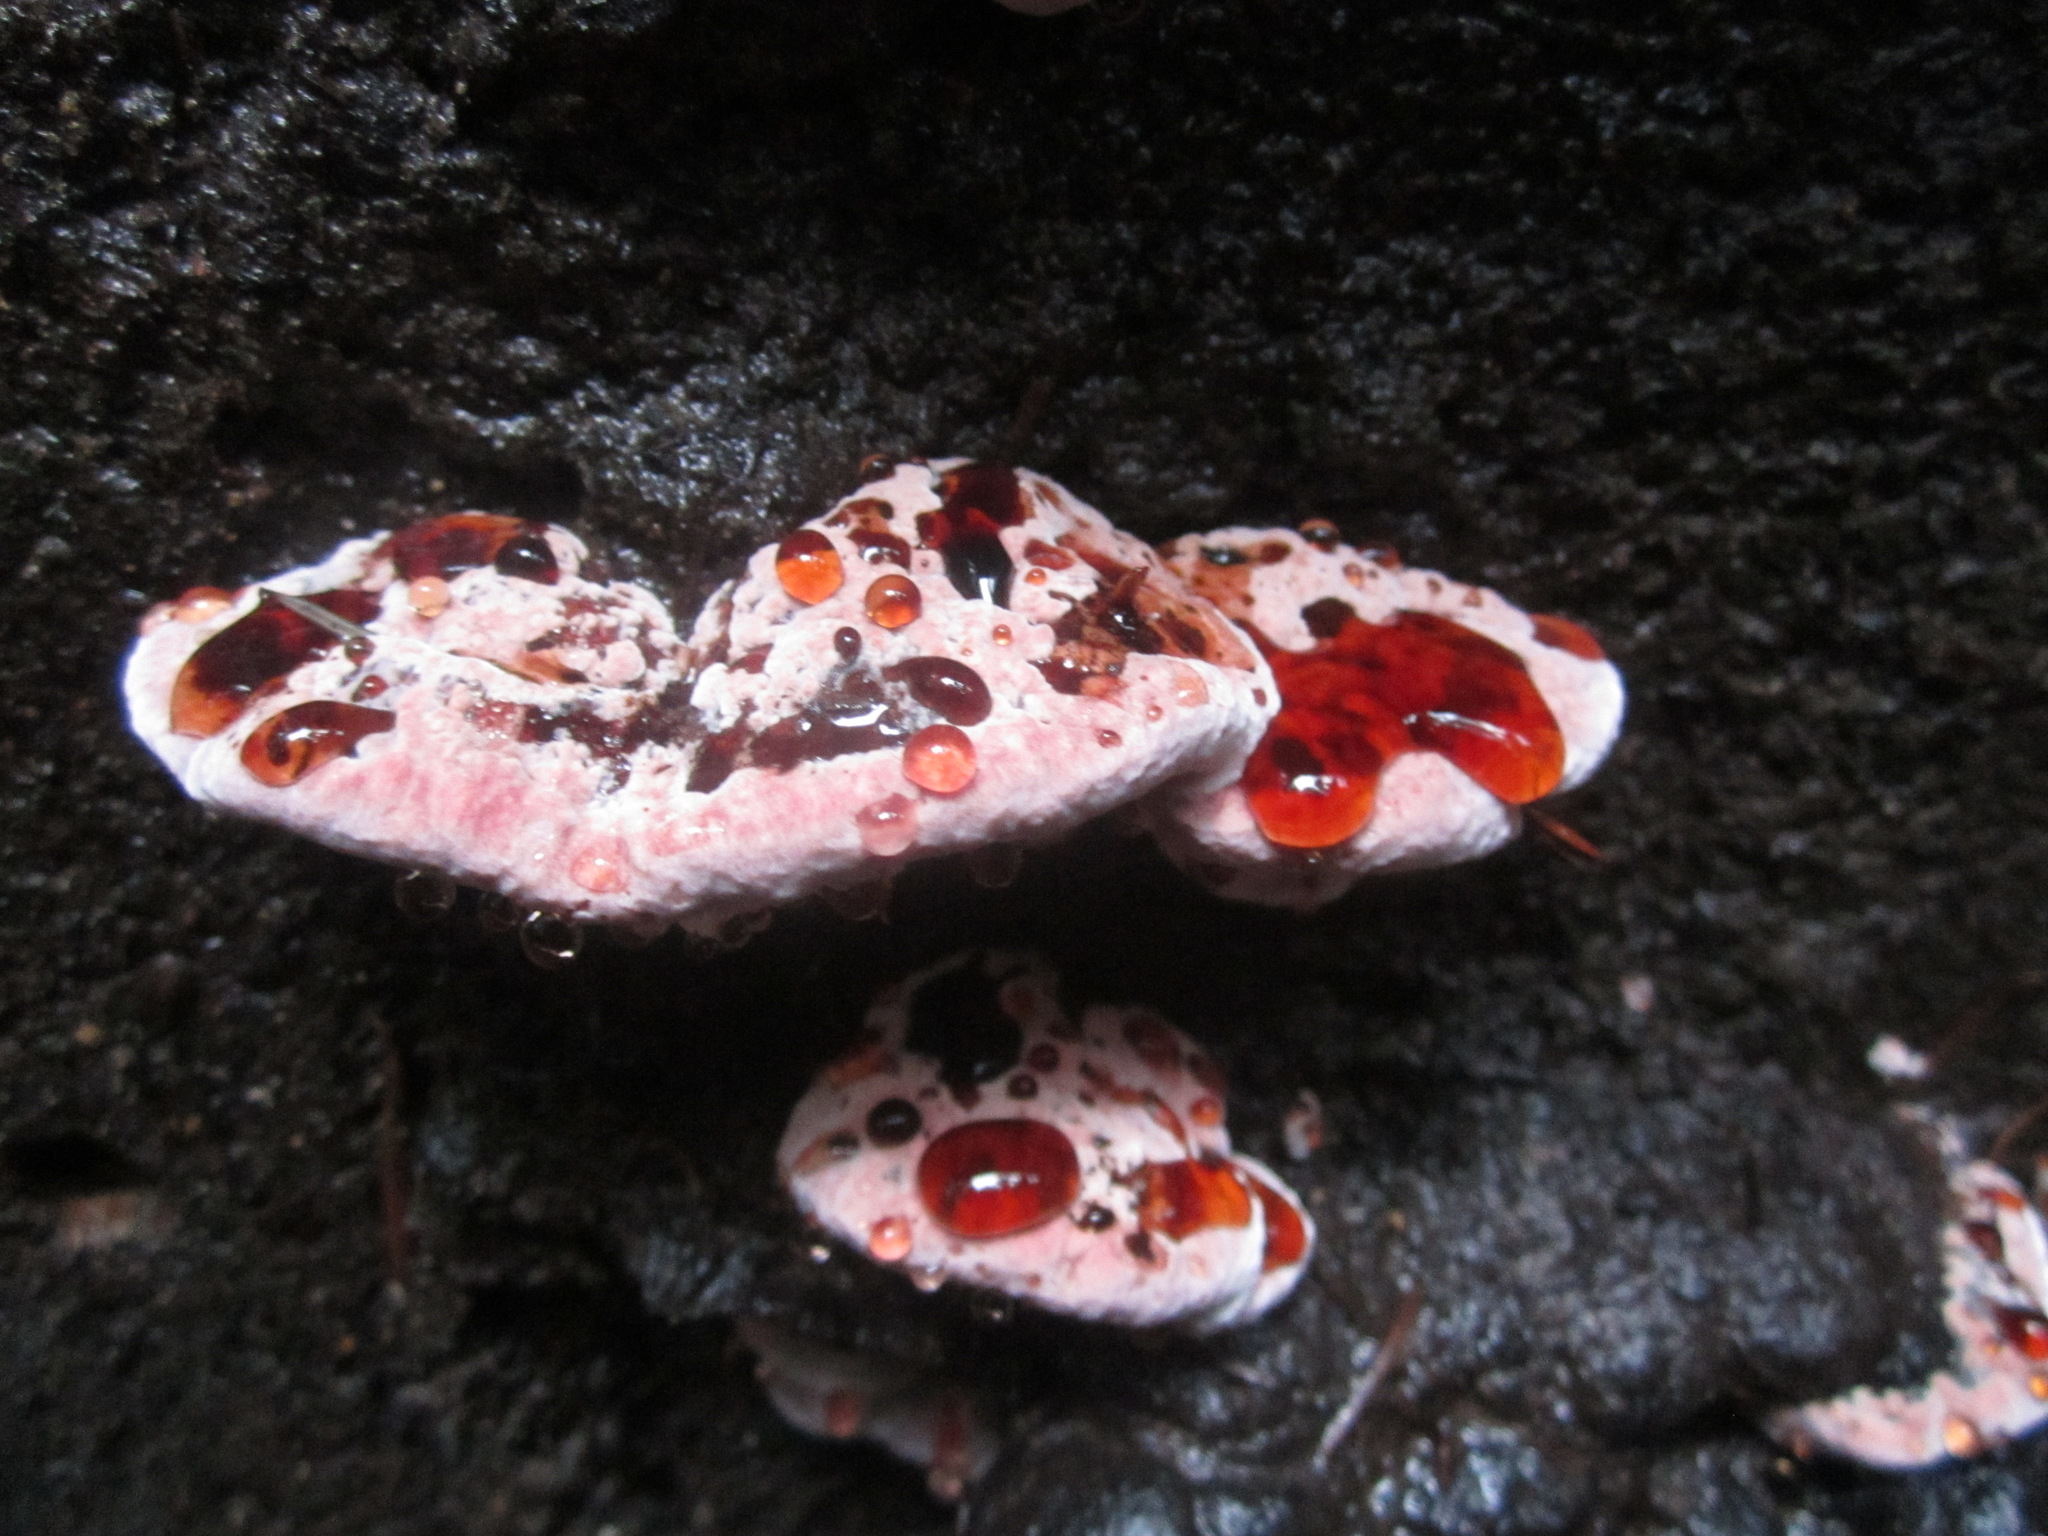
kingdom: Fungi
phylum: Basidiomycota
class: Agaricomycetes
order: Polyporales
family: Fomitopsidaceae
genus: Rhodofomes
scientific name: Rhodofomes cajanderi
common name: Rosy conk
